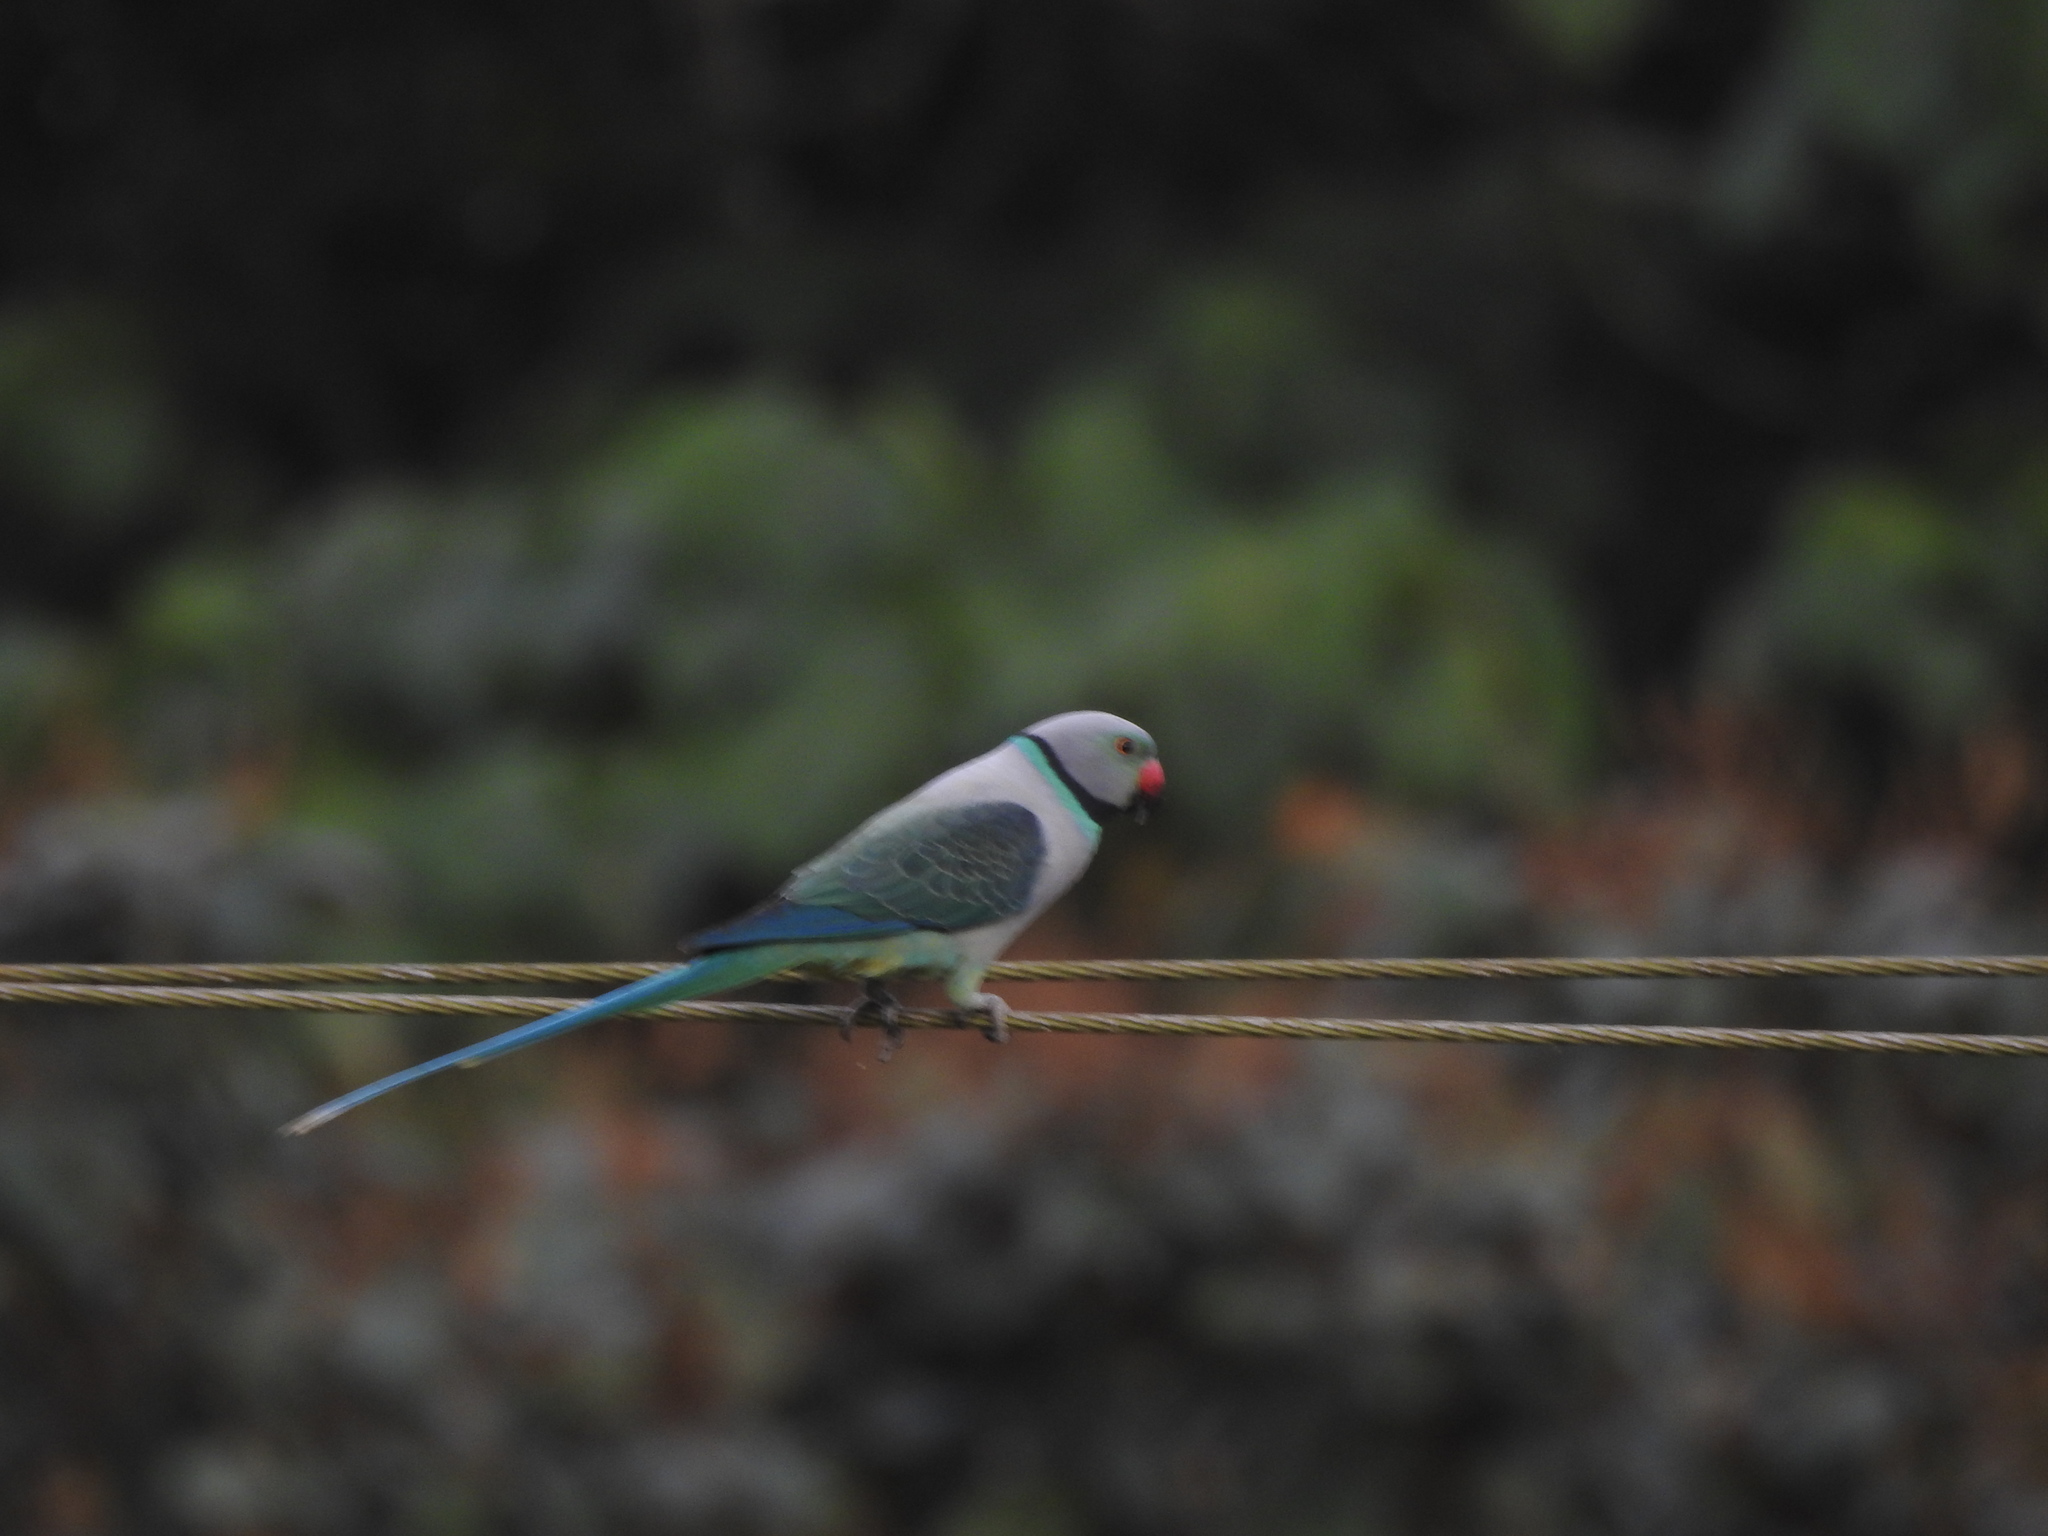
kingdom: Animalia
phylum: Chordata
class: Aves
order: Psittaciformes
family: Psittacidae
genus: Psittacula
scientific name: Psittacula columboides
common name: Blue-winged parakeet
